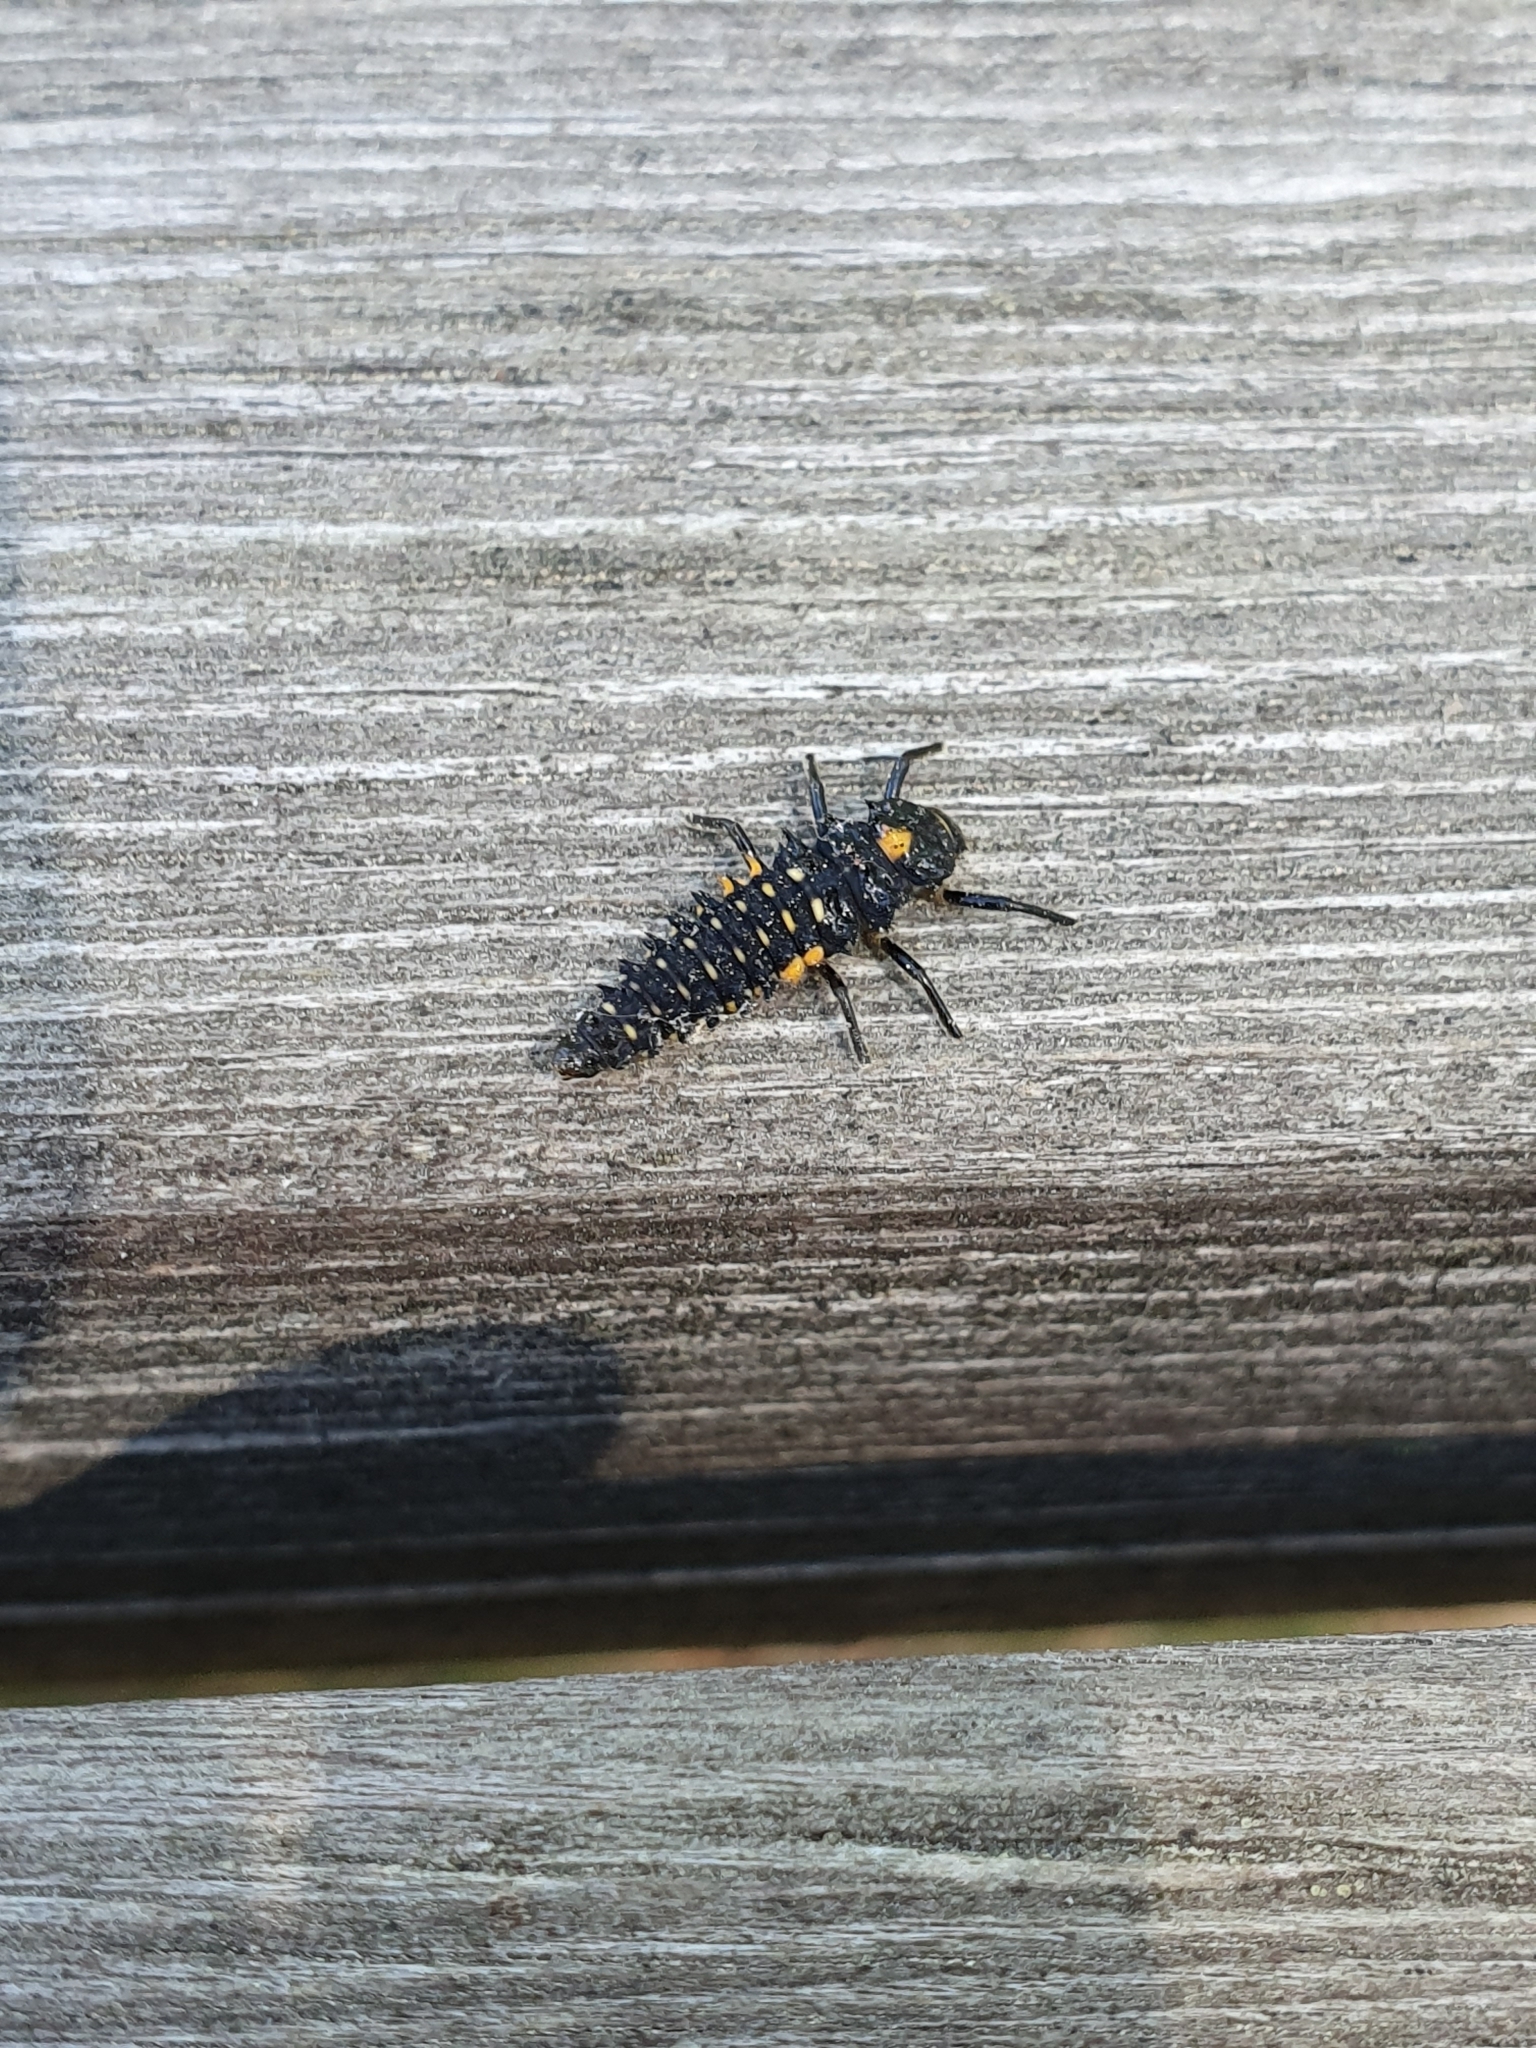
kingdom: Animalia
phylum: Arthropoda
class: Insecta
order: Coleoptera
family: Coccinellidae
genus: Anatis
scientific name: Anatis ocellata
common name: Eyed ladybird
